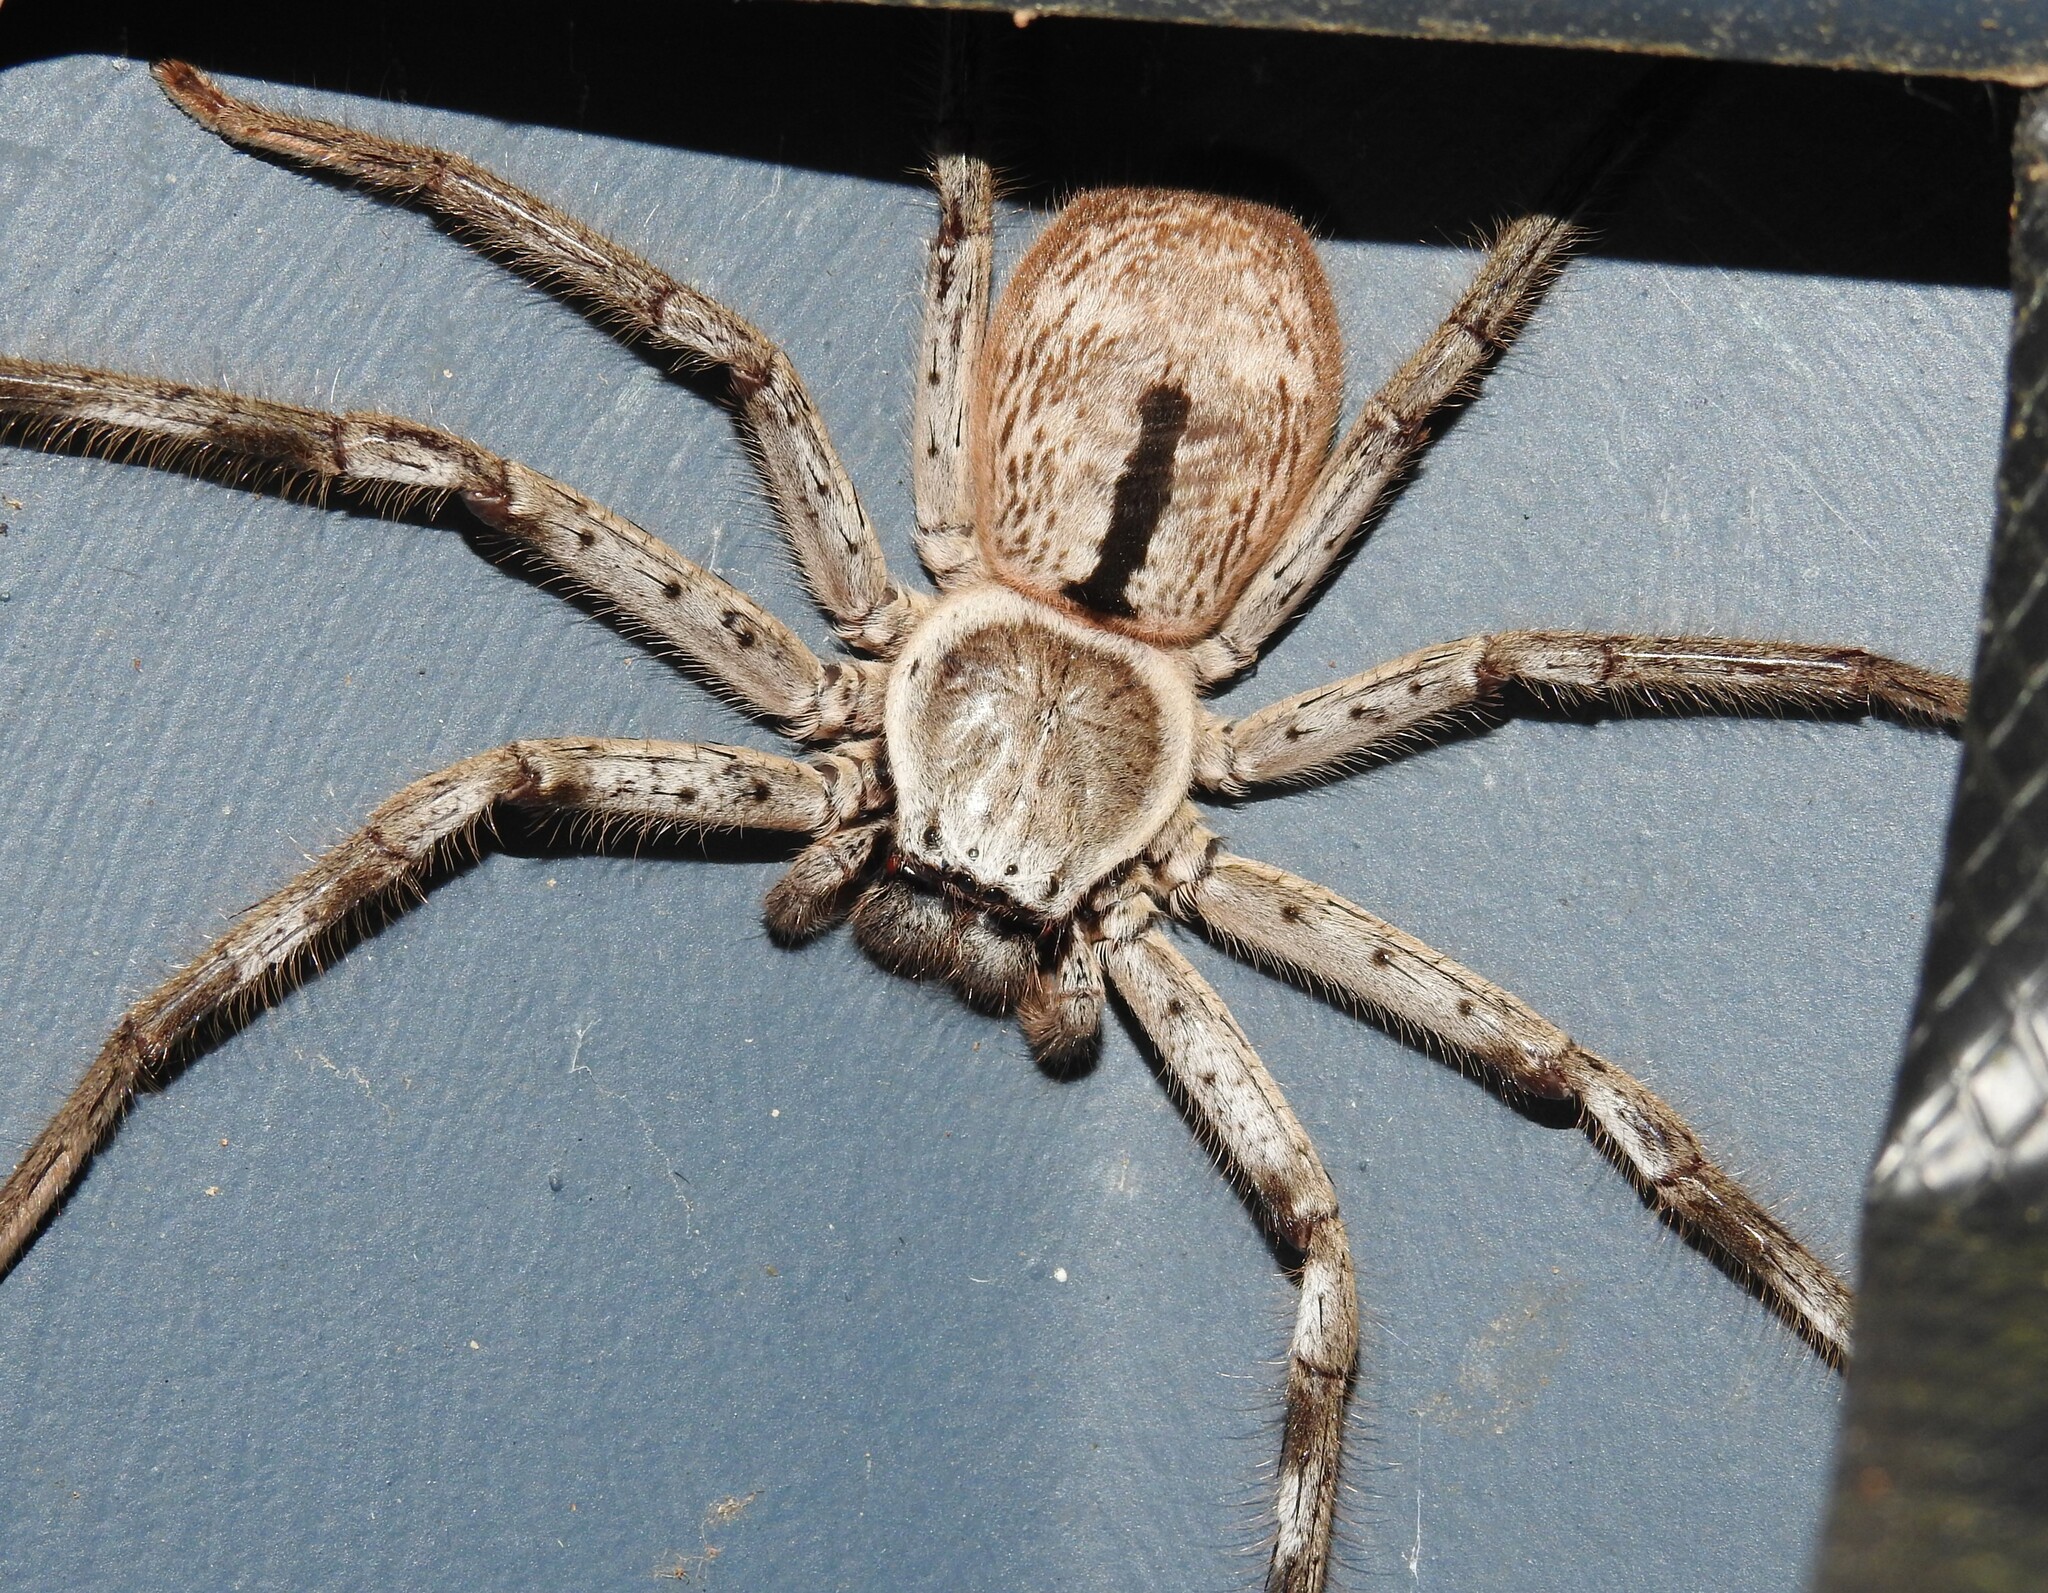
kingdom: Animalia
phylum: Arthropoda
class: Arachnida
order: Araneae
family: Sparassidae
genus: Holconia
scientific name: Holconia immanis
